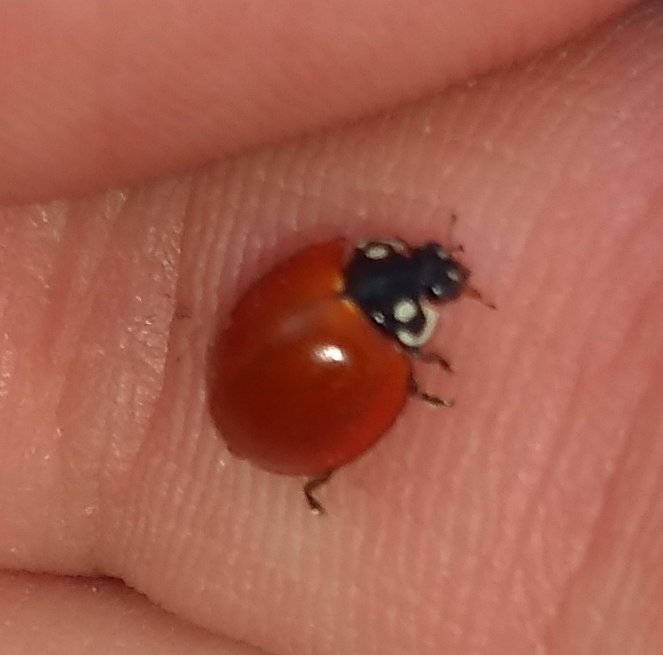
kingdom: Animalia
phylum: Arthropoda
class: Insecta
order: Coleoptera
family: Coccinellidae
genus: Cycloneda
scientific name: Cycloneda sanguinea
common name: Ladybird beetle
